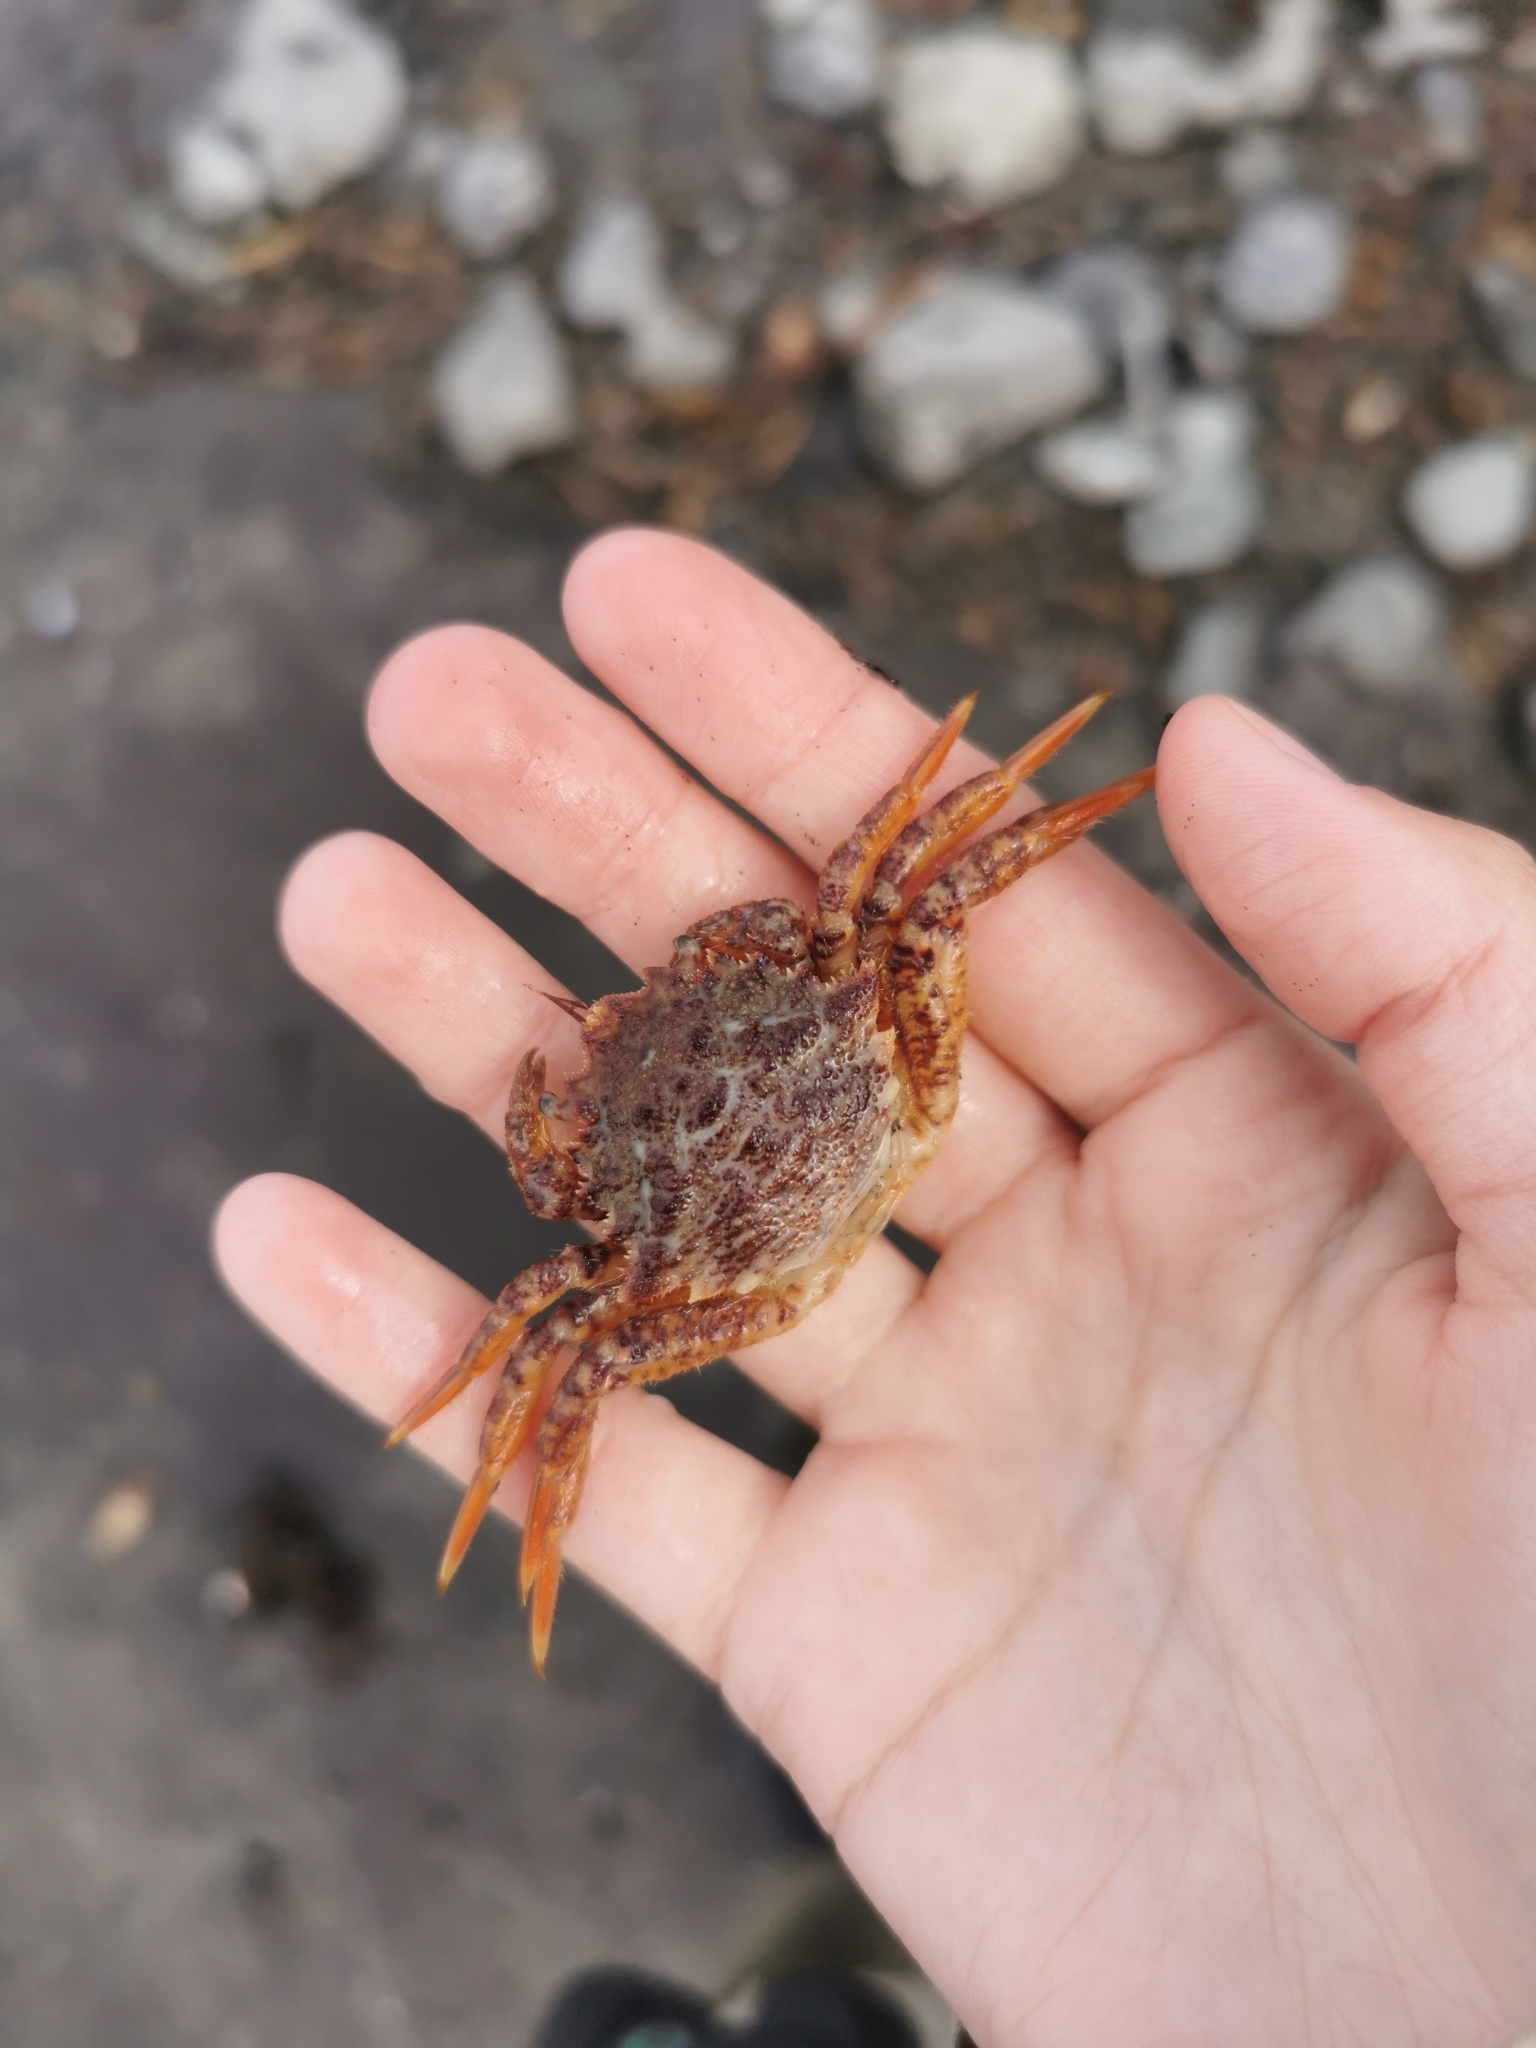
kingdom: Animalia
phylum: Arthropoda
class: Malacostraca
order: Decapoda
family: Cheiragonidae
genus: Telmessus
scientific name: Telmessus cheiragonus
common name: Helmet crab
